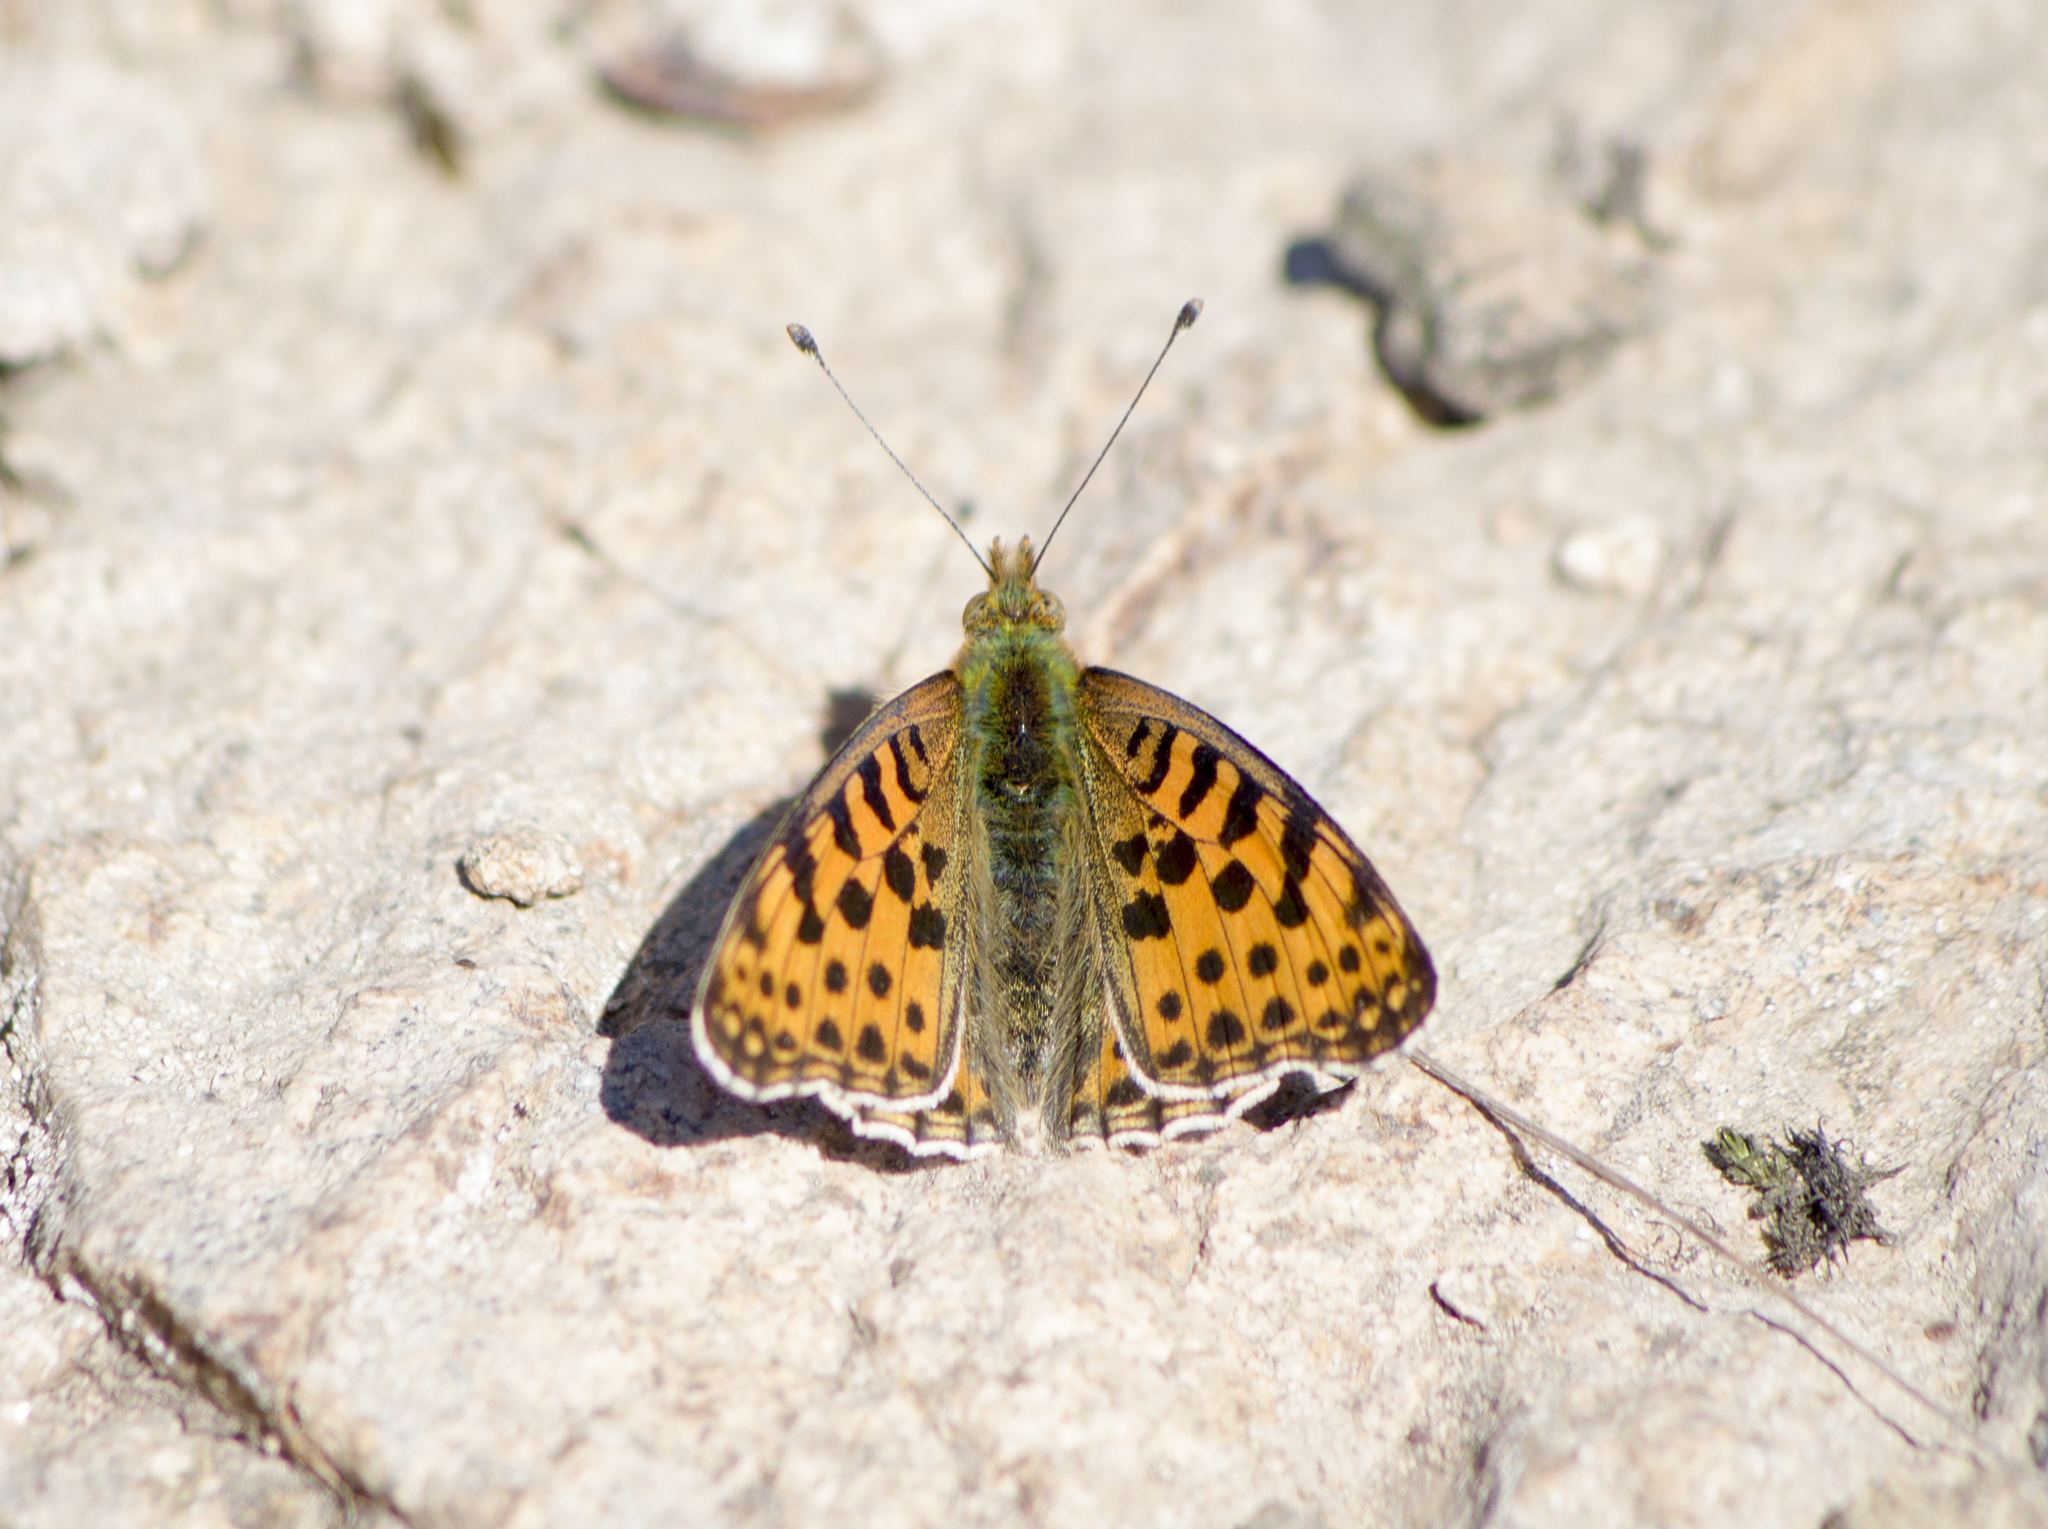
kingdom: Animalia
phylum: Arthropoda
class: Insecta
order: Lepidoptera
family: Nymphalidae
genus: Issoria
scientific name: Issoria lathonia
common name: Queen of spain fritillary
